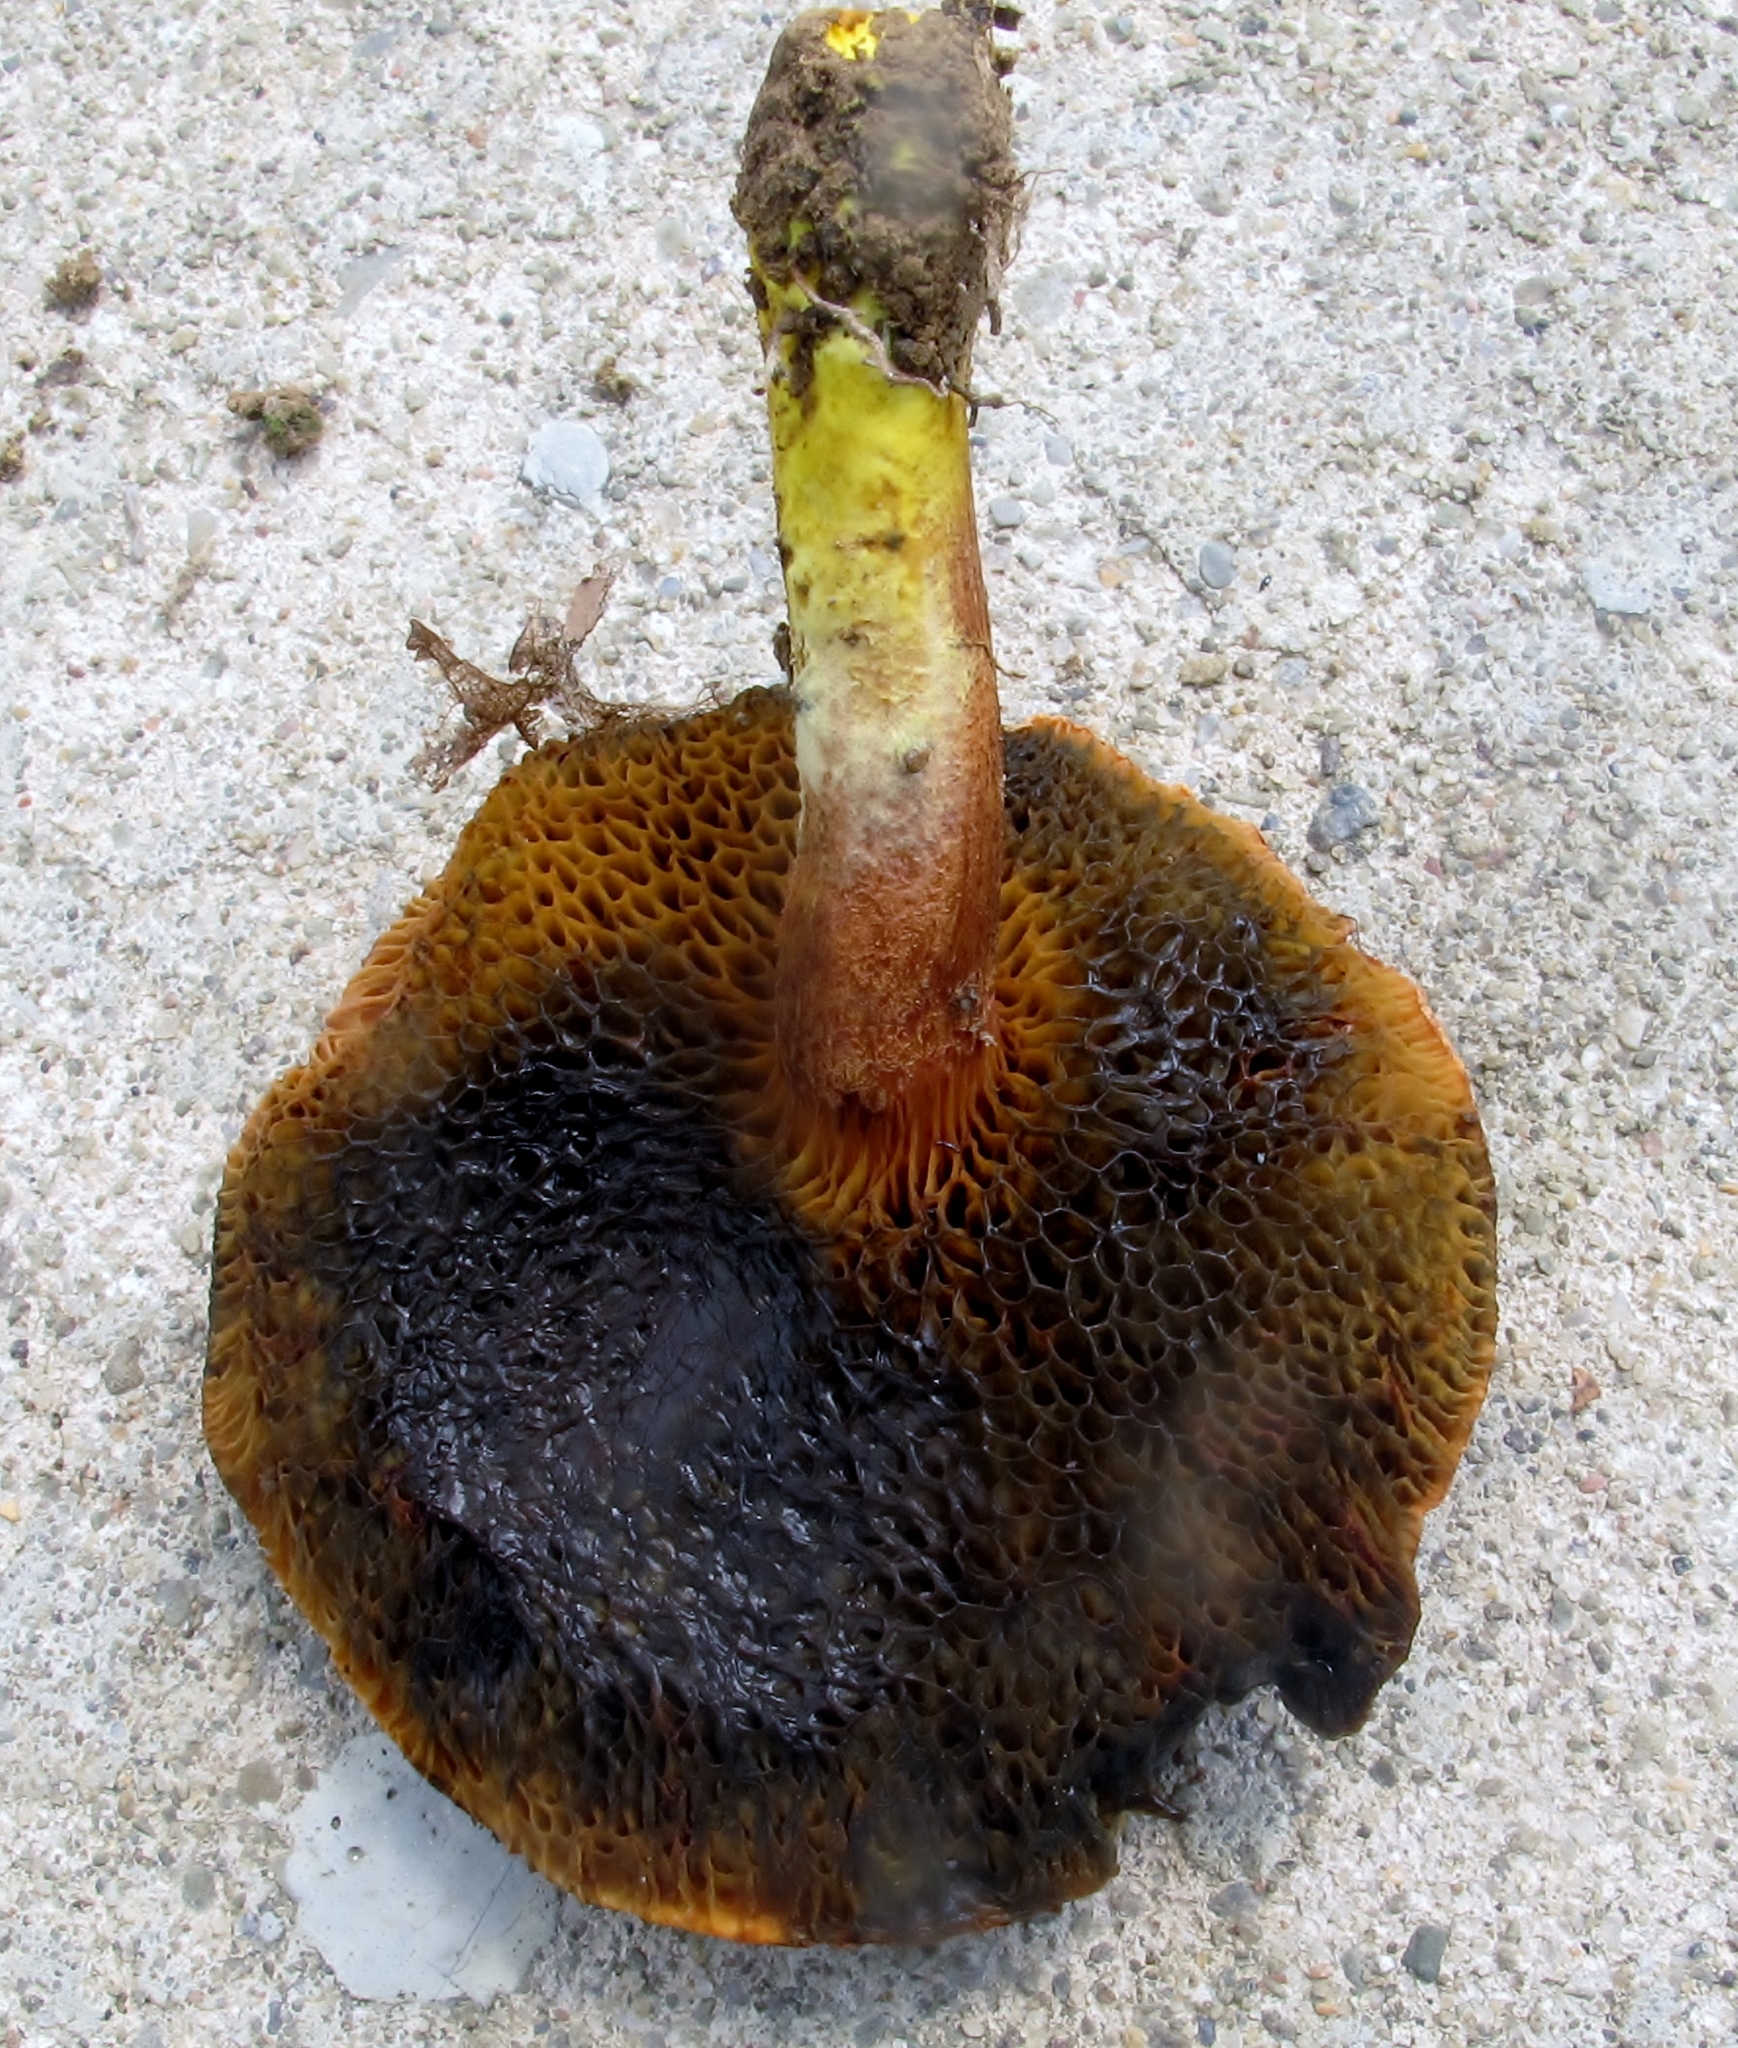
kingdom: Fungi
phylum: Basidiomycota
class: Agaricomycetes
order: Boletales
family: Boletaceae
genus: Chalciporus
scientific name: Chalciporus piperatoides
